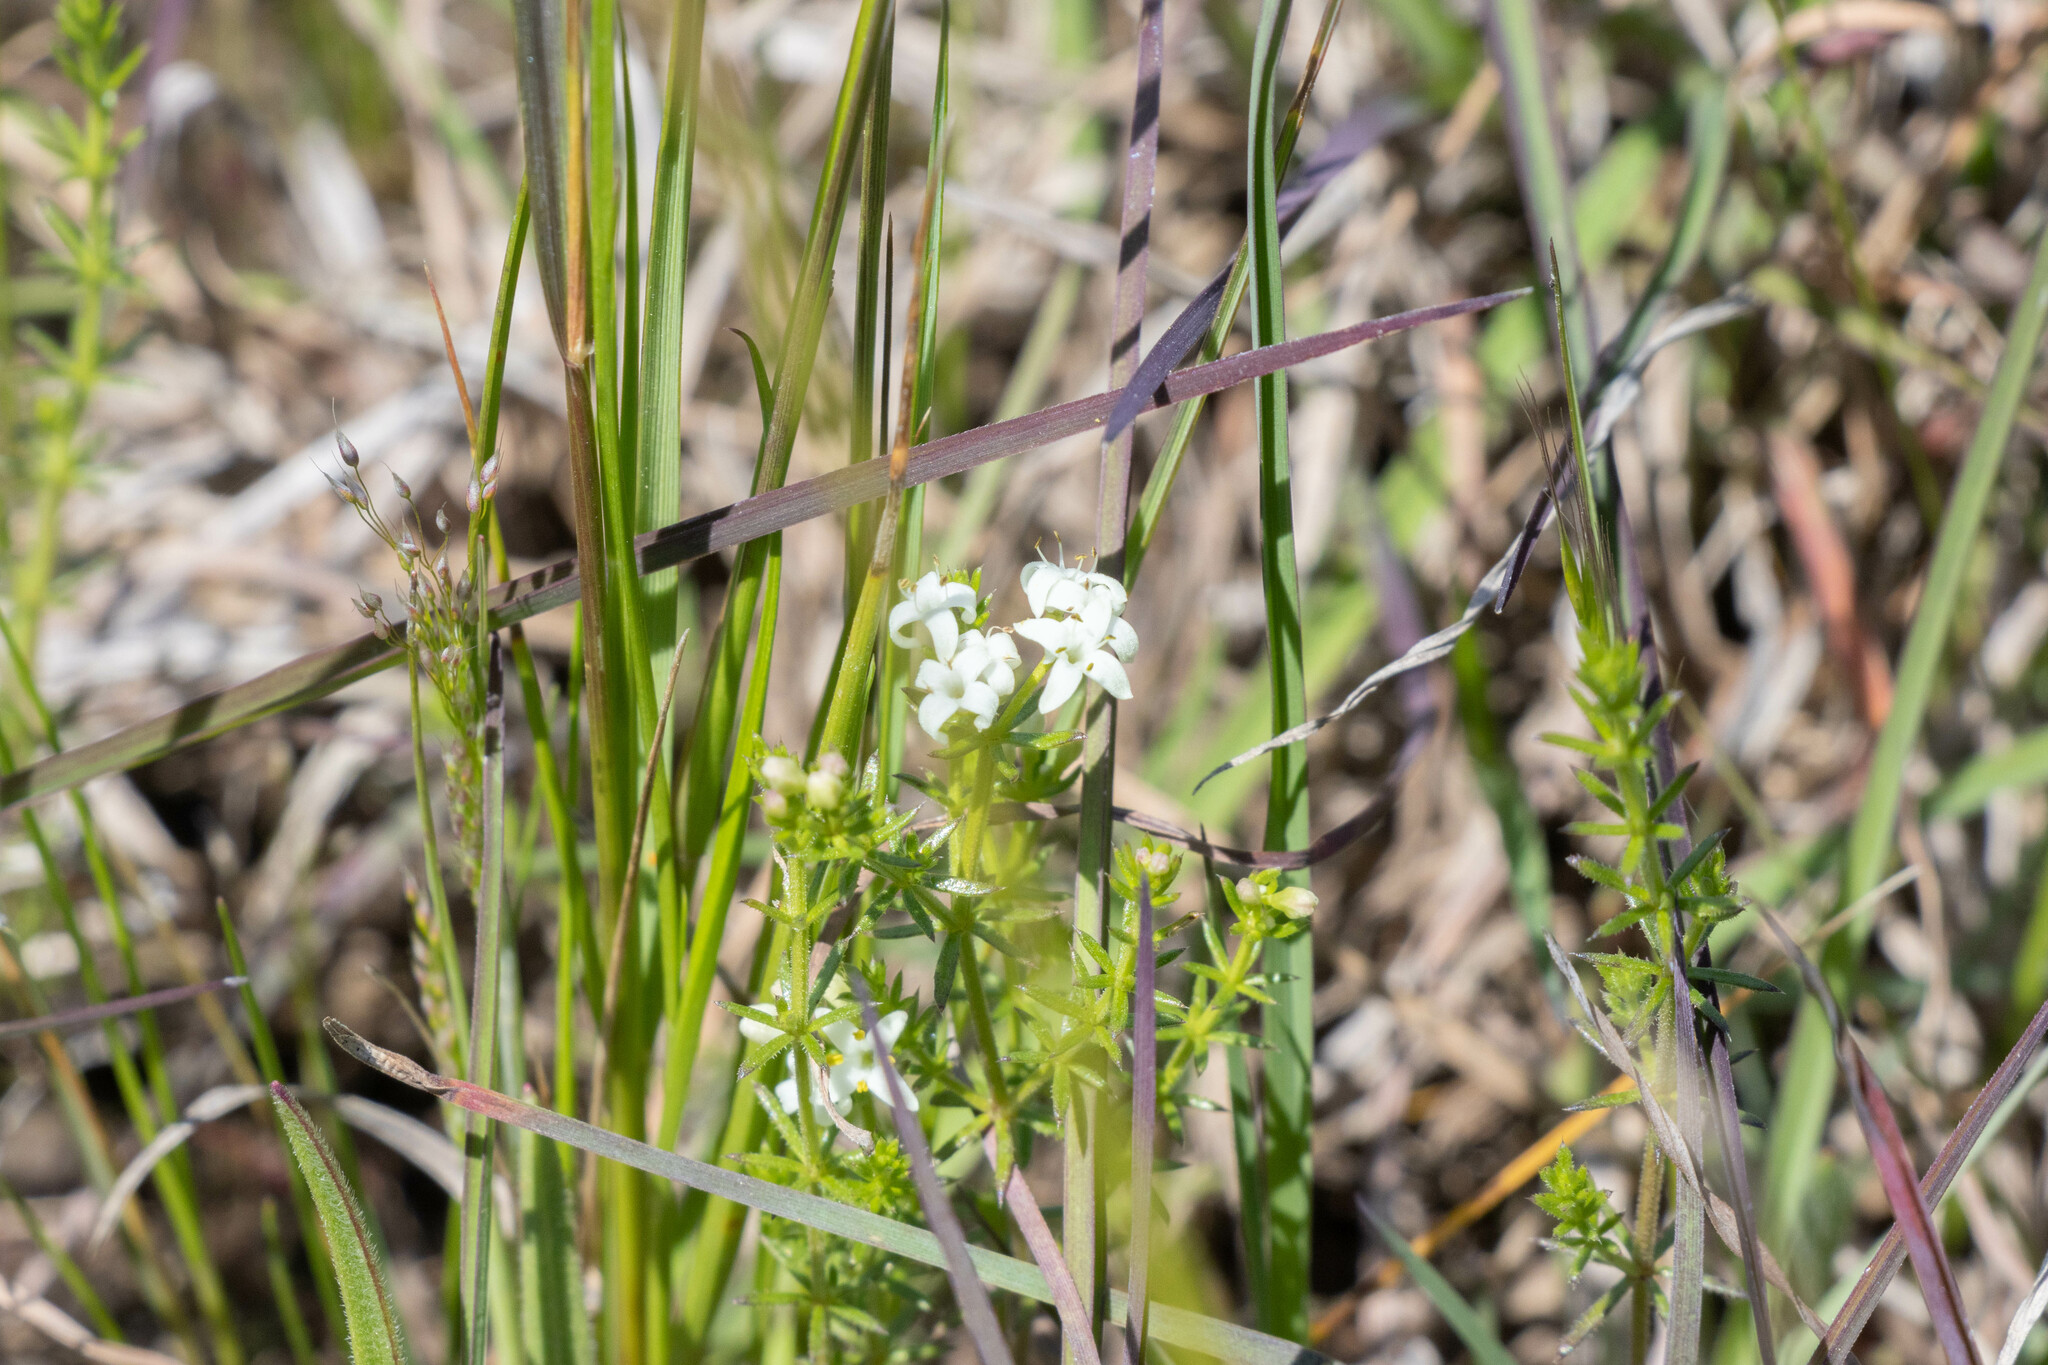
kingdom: Plantae
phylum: Tracheophyta
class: Magnoliopsida
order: Gentianales
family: Rubiaceae
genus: Asperula
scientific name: Asperula conferta
